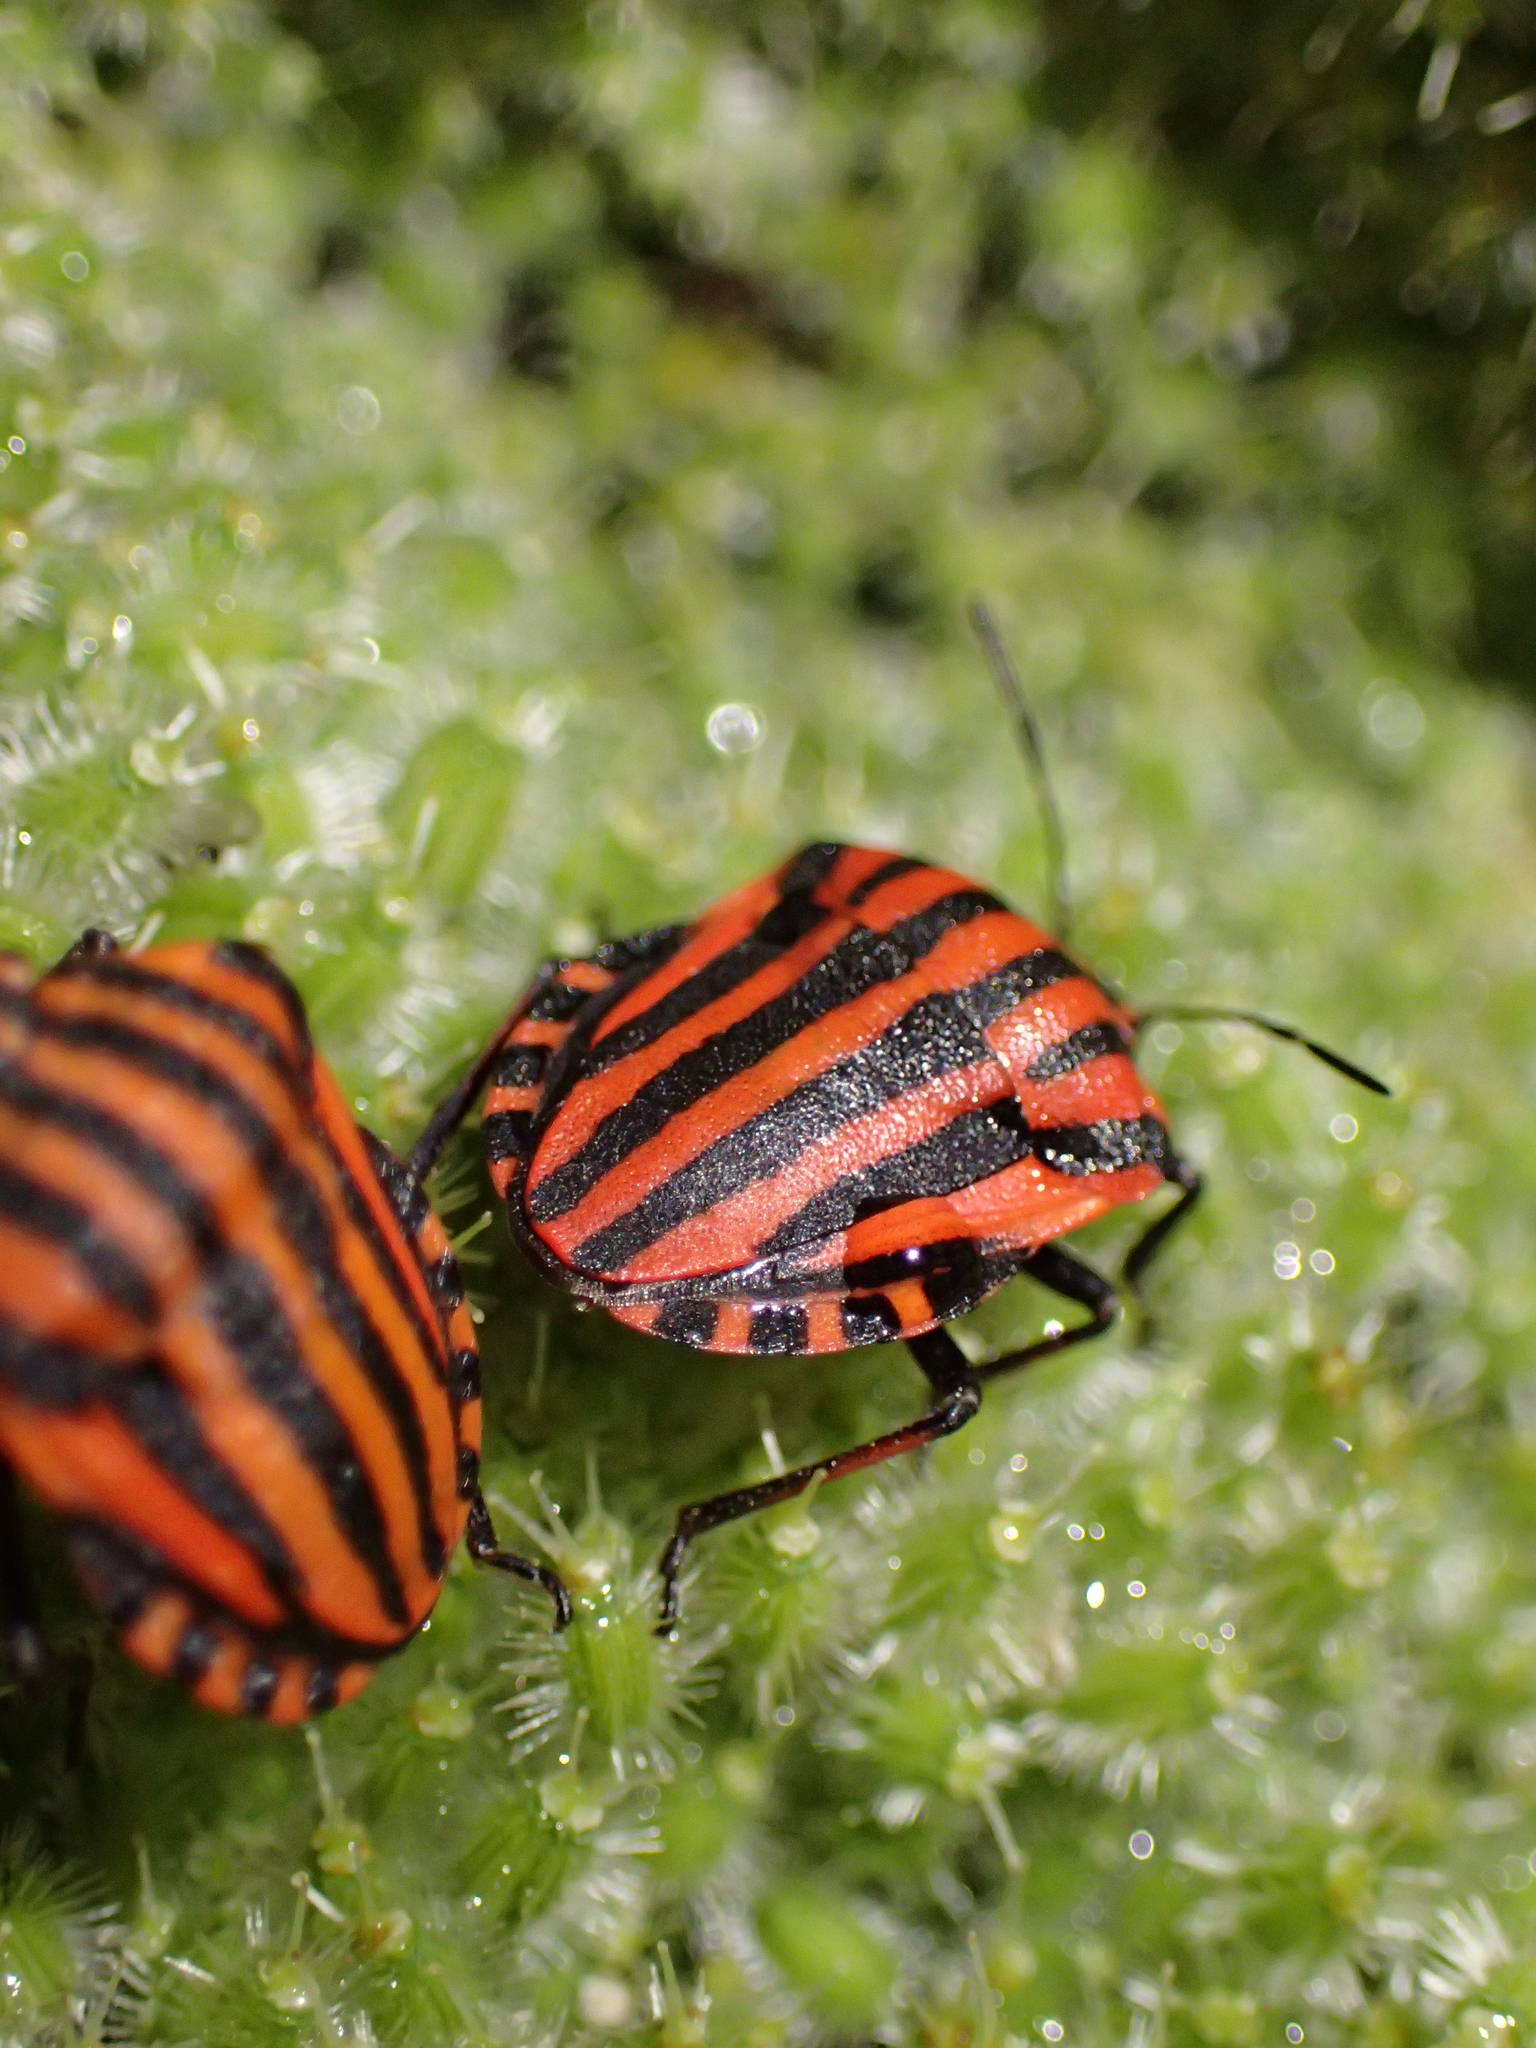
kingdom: Animalia
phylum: Arthropoda
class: Insecta
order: Hemiptera
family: Pentatomidae
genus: Graphosoma
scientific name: Graphosoma italicum
